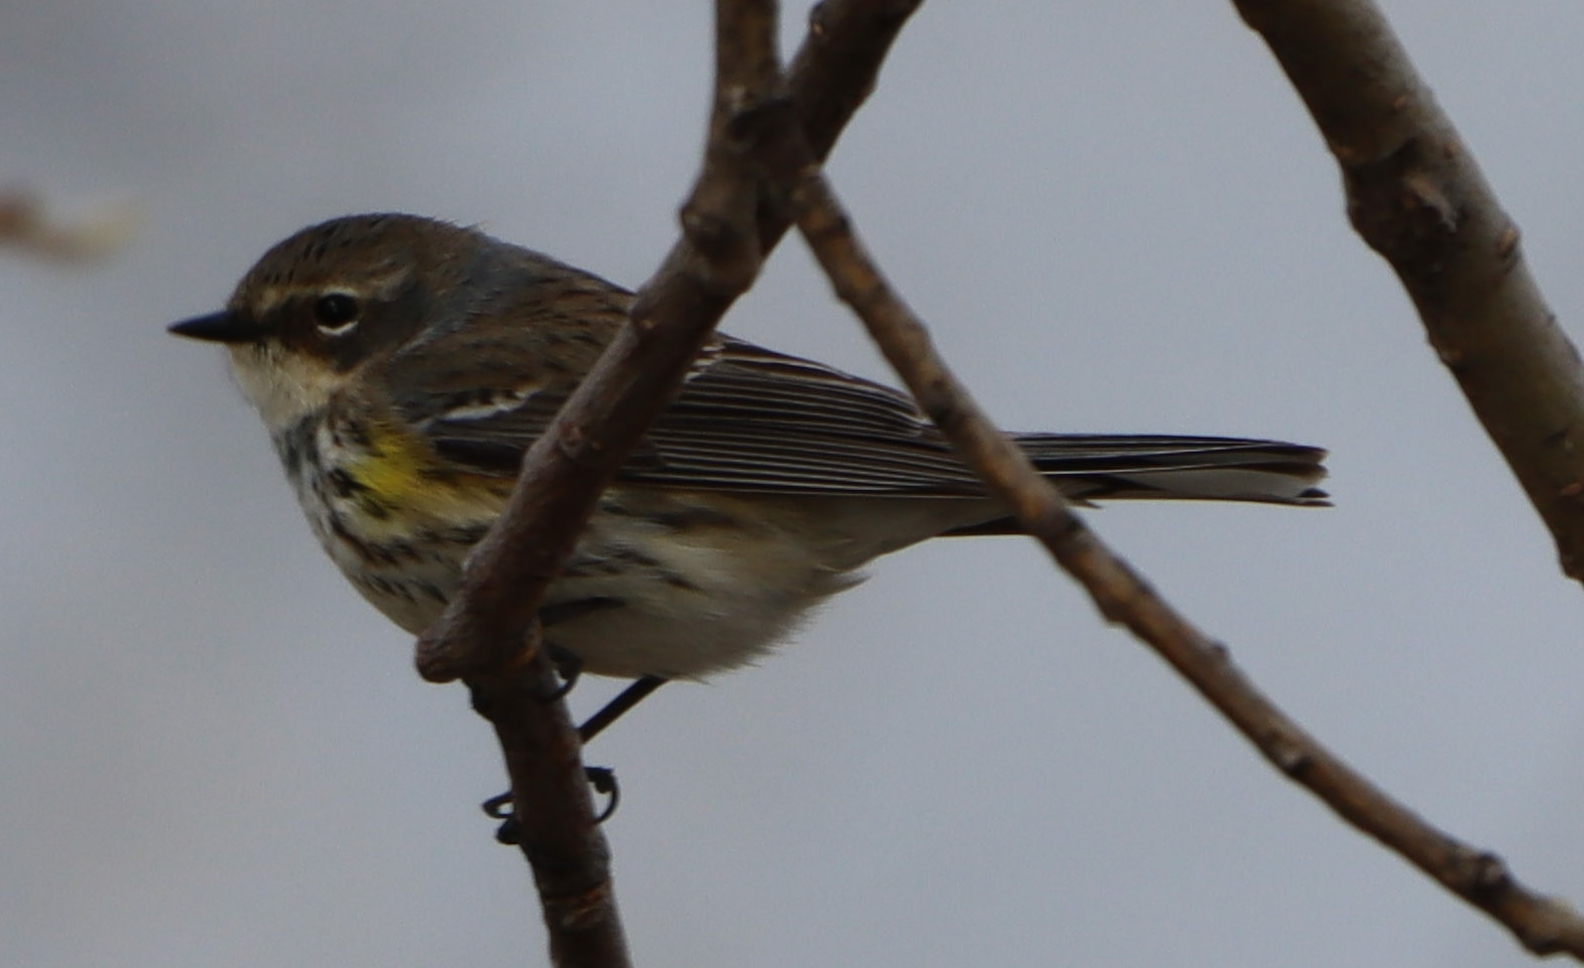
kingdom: Animalia
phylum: Chordata
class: Aves
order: Passeriformes
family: Parulidae
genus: Setophaga
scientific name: Setophaga coronata
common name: Myrtle warbler
